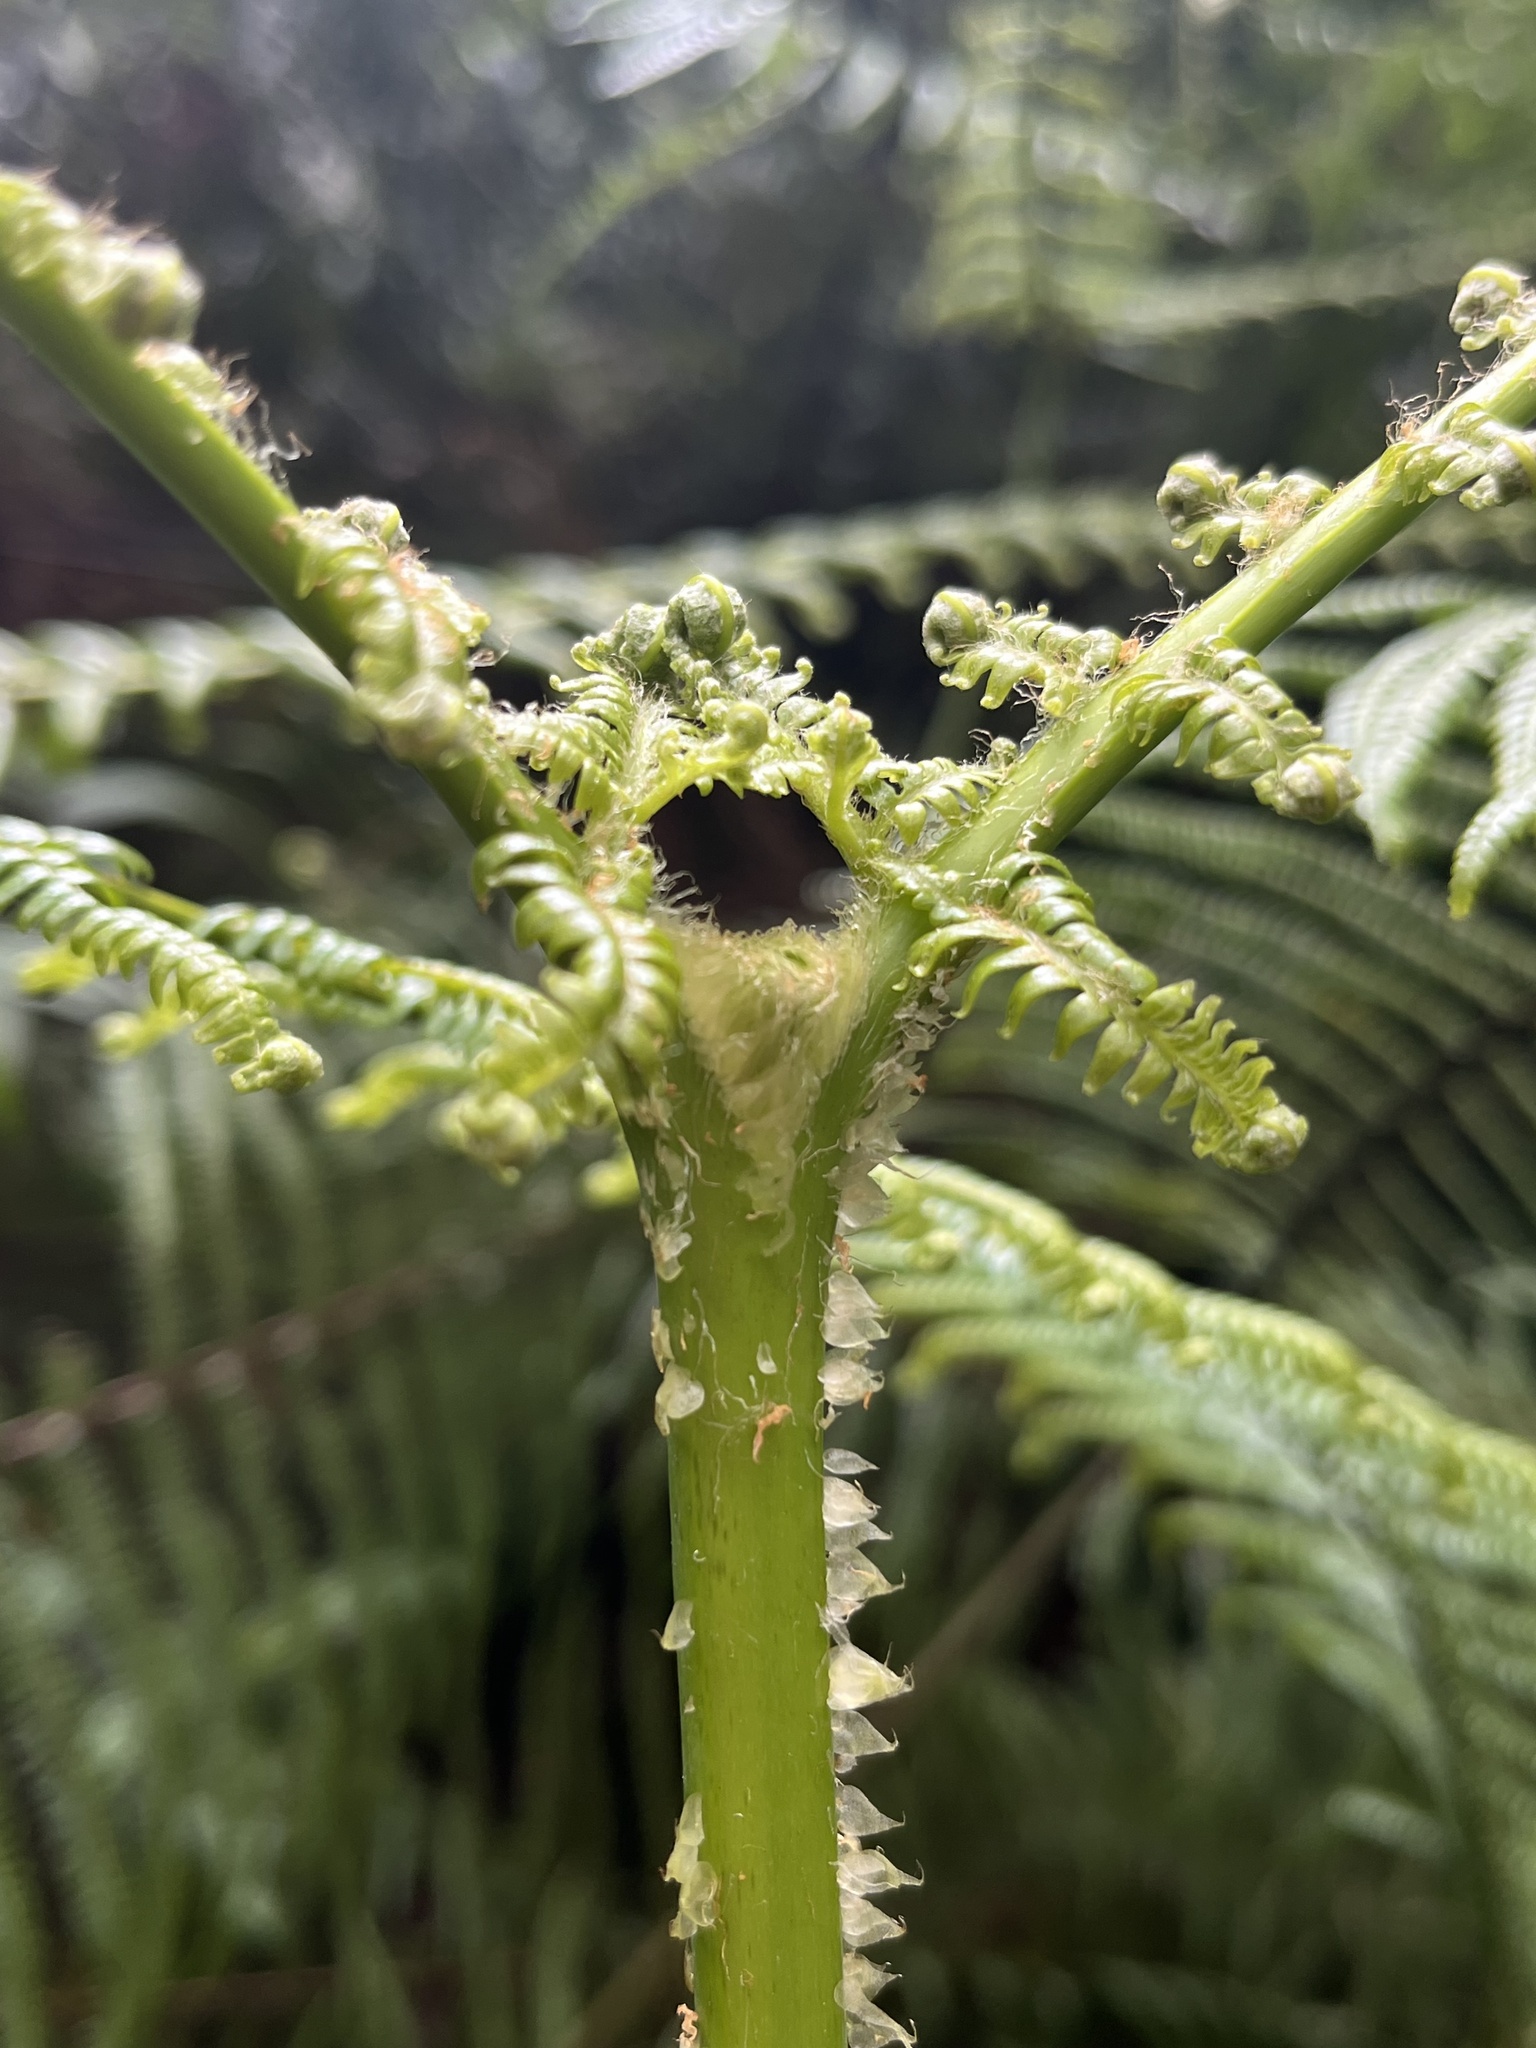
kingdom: Plantae
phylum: Tracheophyta
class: Polypodiopsida
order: Gleicheniales
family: Gleicheniaceae
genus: Diplopterygium
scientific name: Diplopterygium bancroftii
